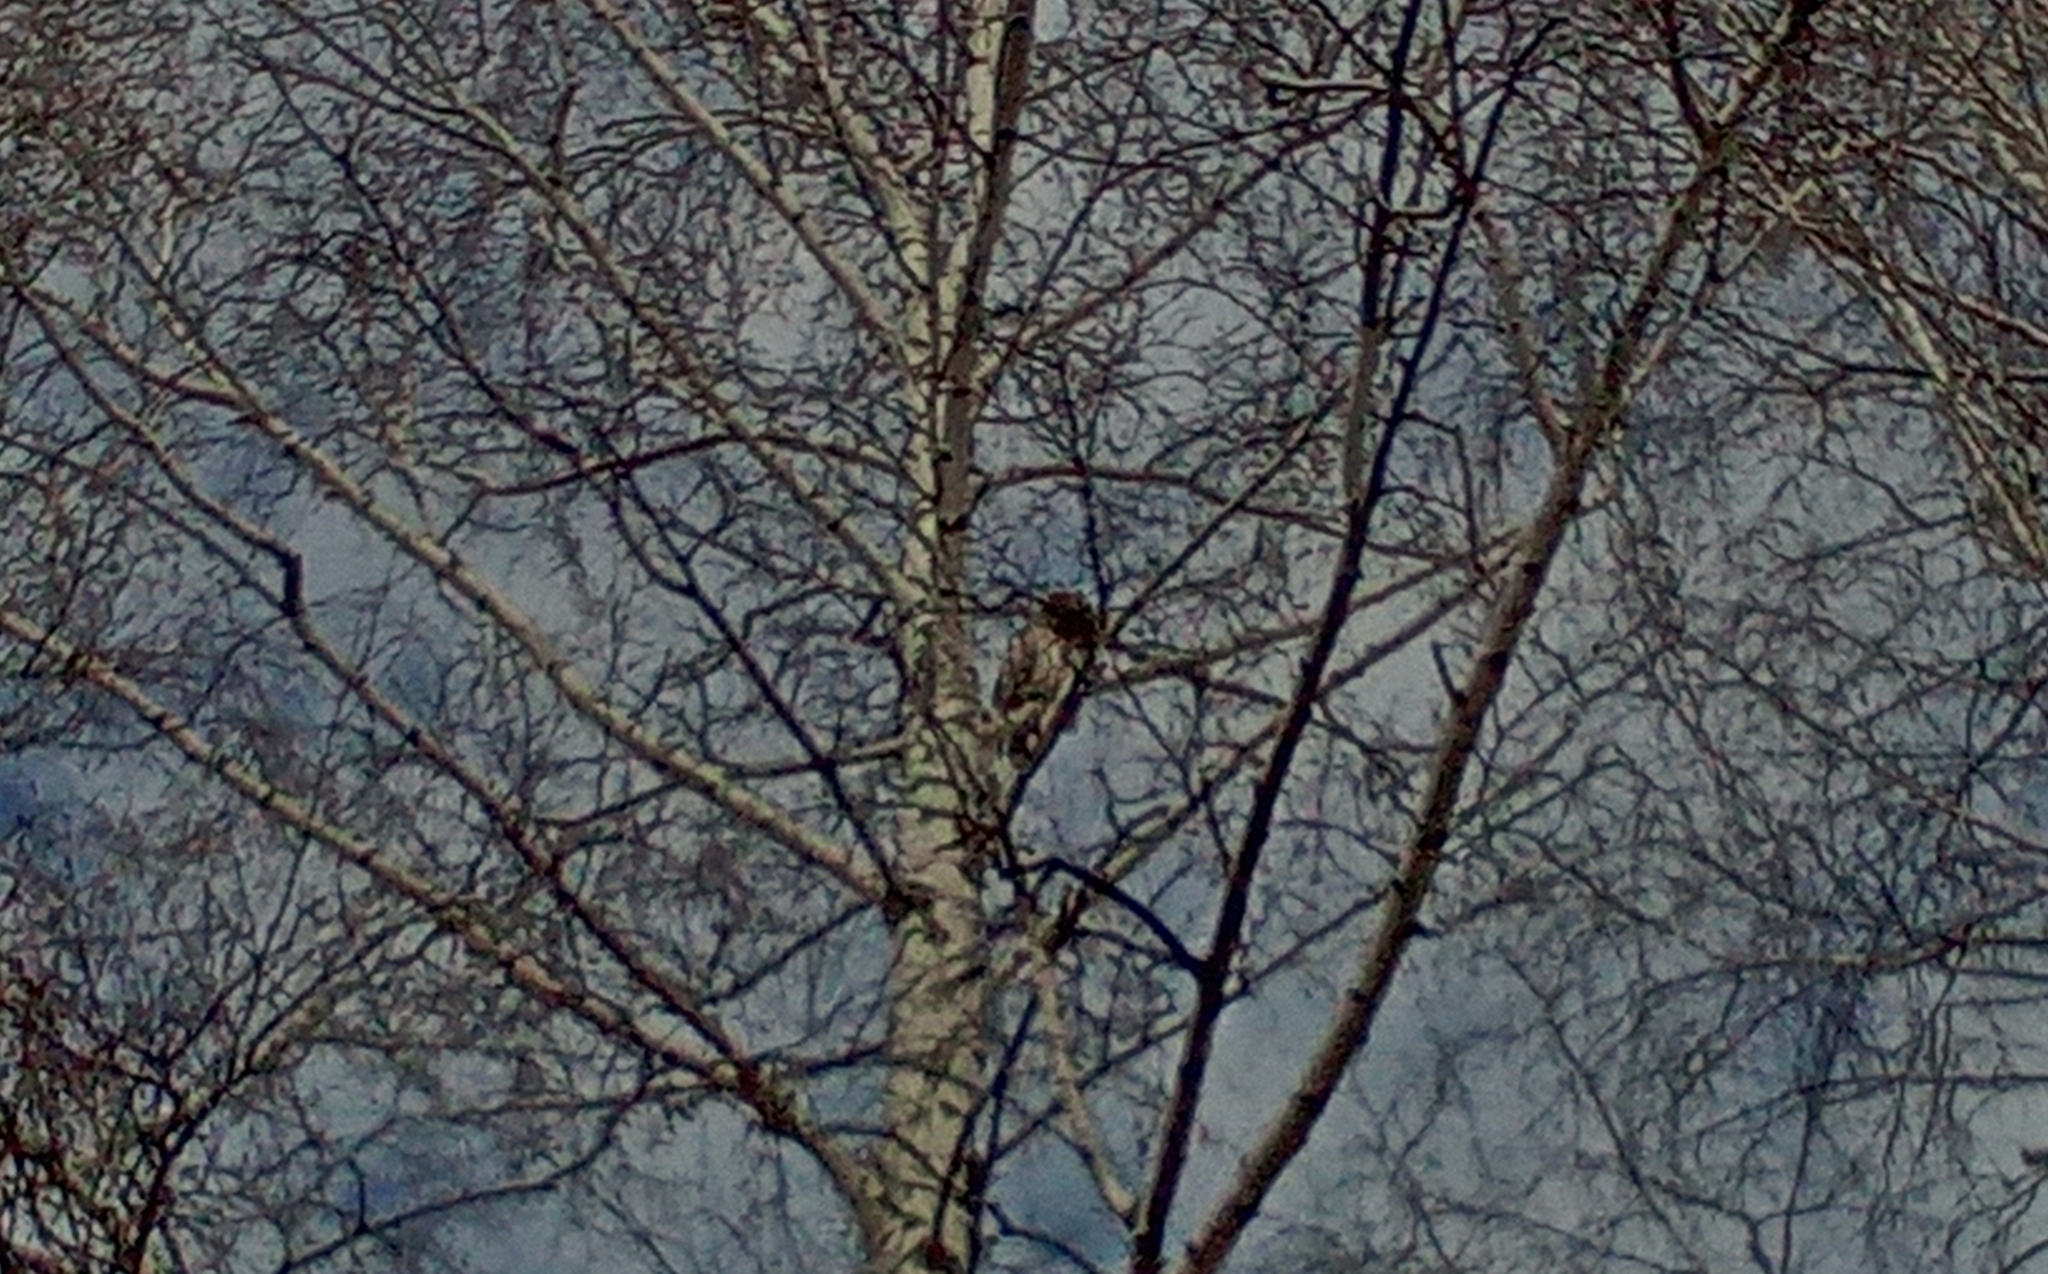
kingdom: Animalia
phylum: Chordata
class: Aves
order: Strigiformes
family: Strigidae
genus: Strix
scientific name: Strix uralensis
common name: Ural owl
